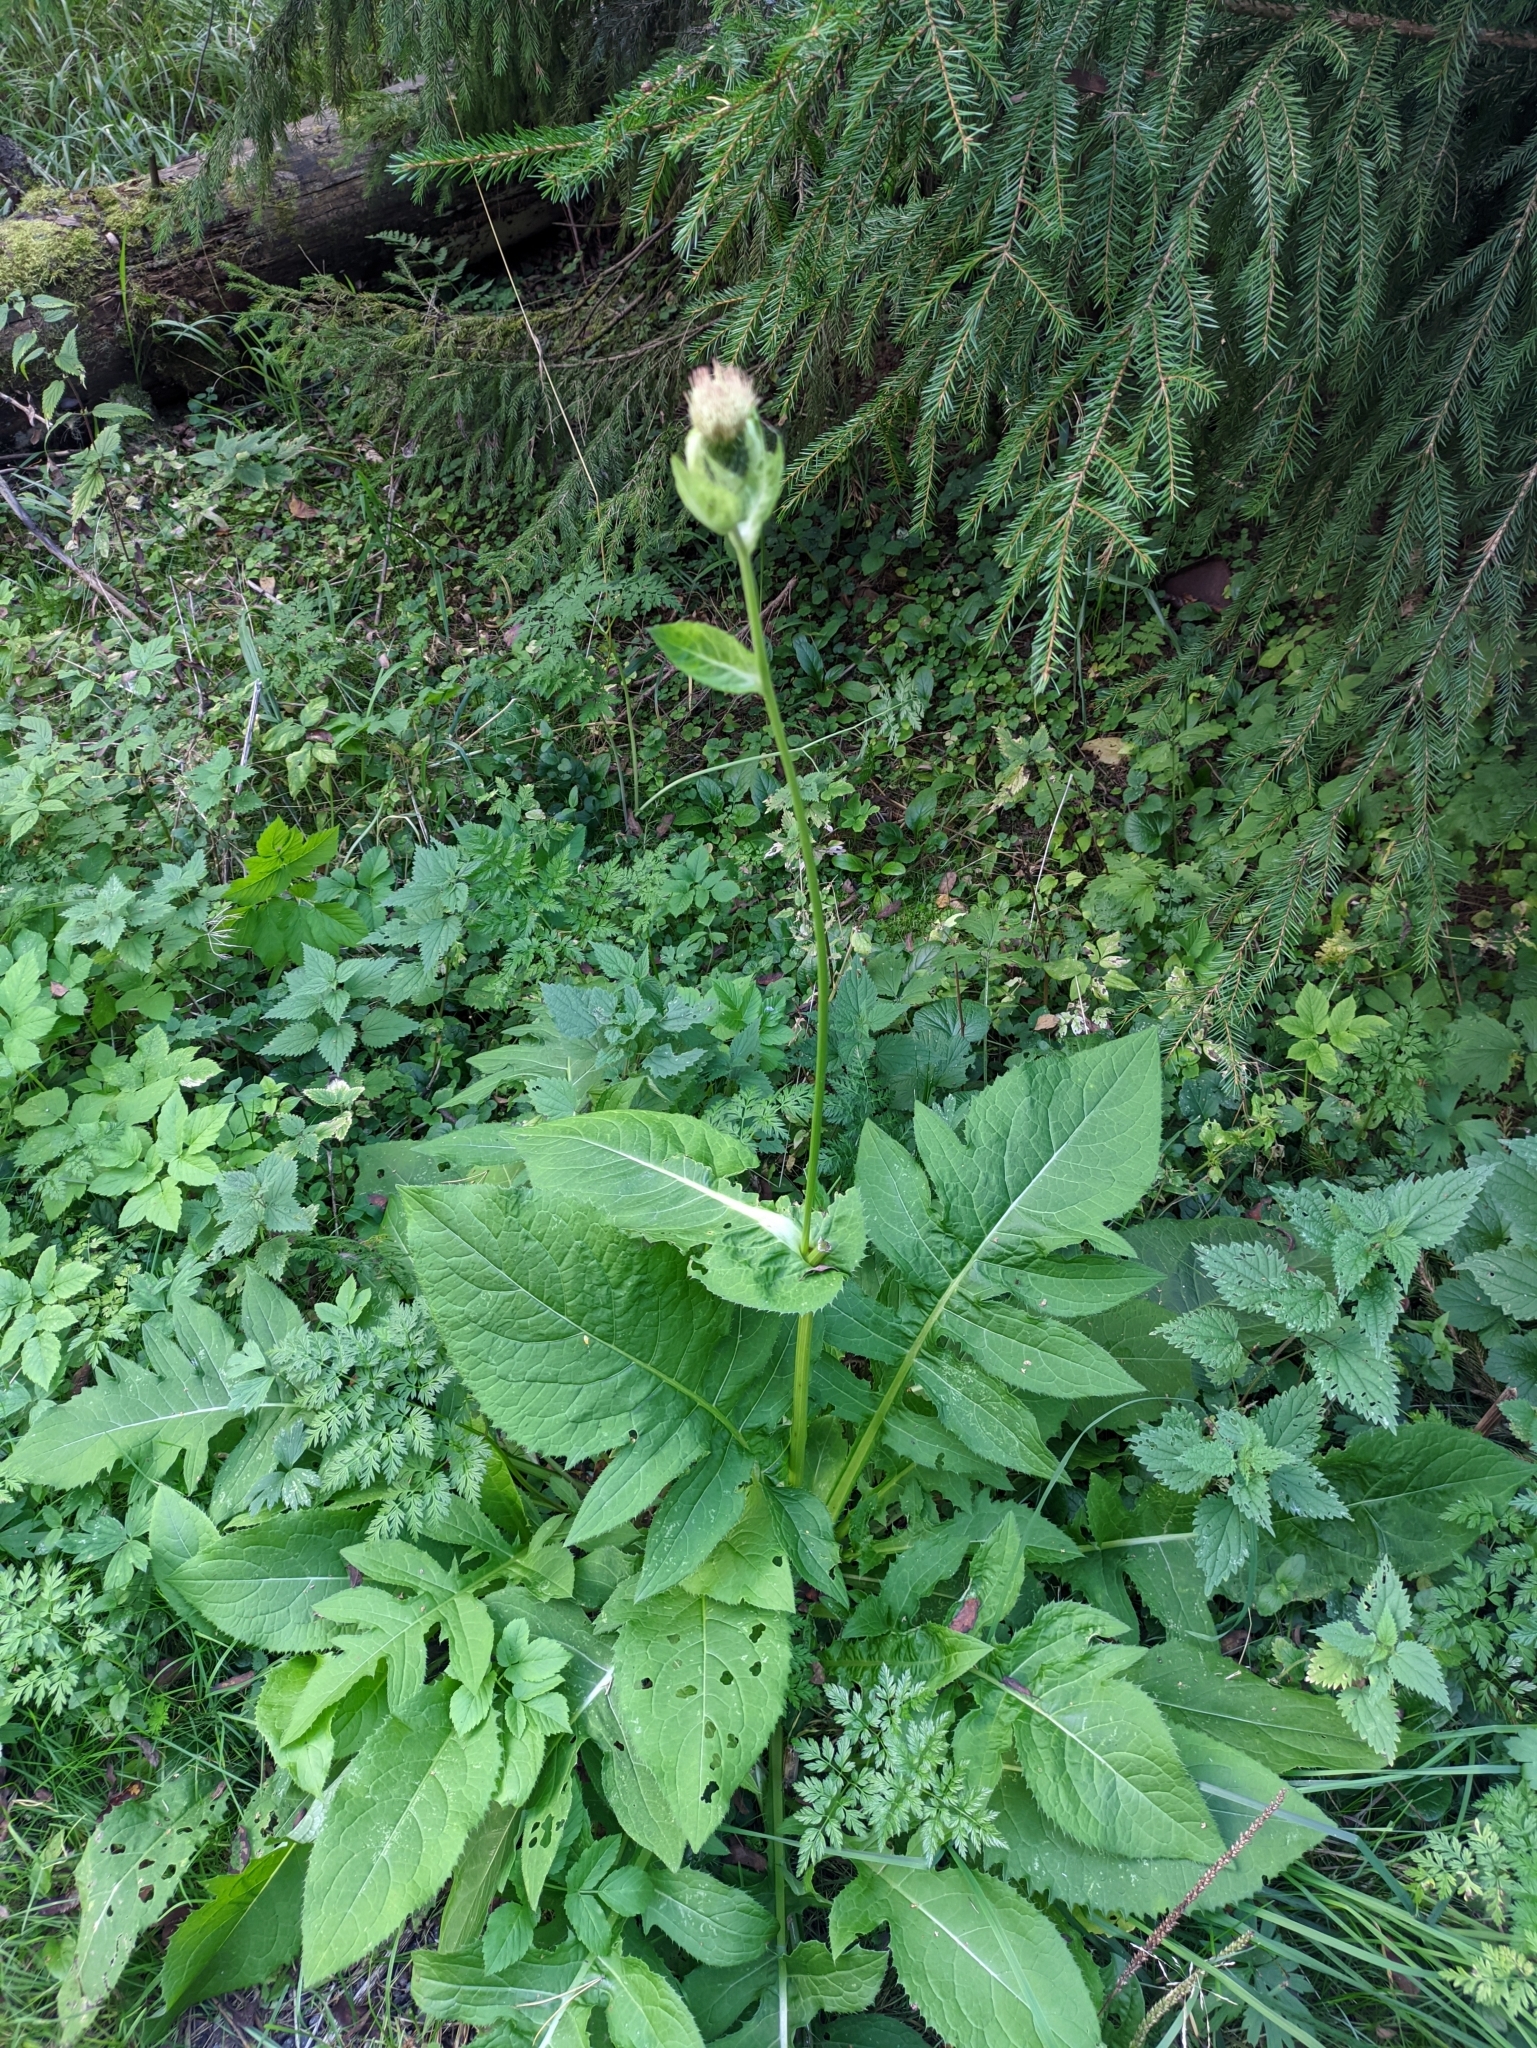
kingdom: Plantae
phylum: Tracheophyta
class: Magnoliopsida
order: Asterales
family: Asteraceae
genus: Cirsium
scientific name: Cirsium oleraceum
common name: Cabbage thistle
